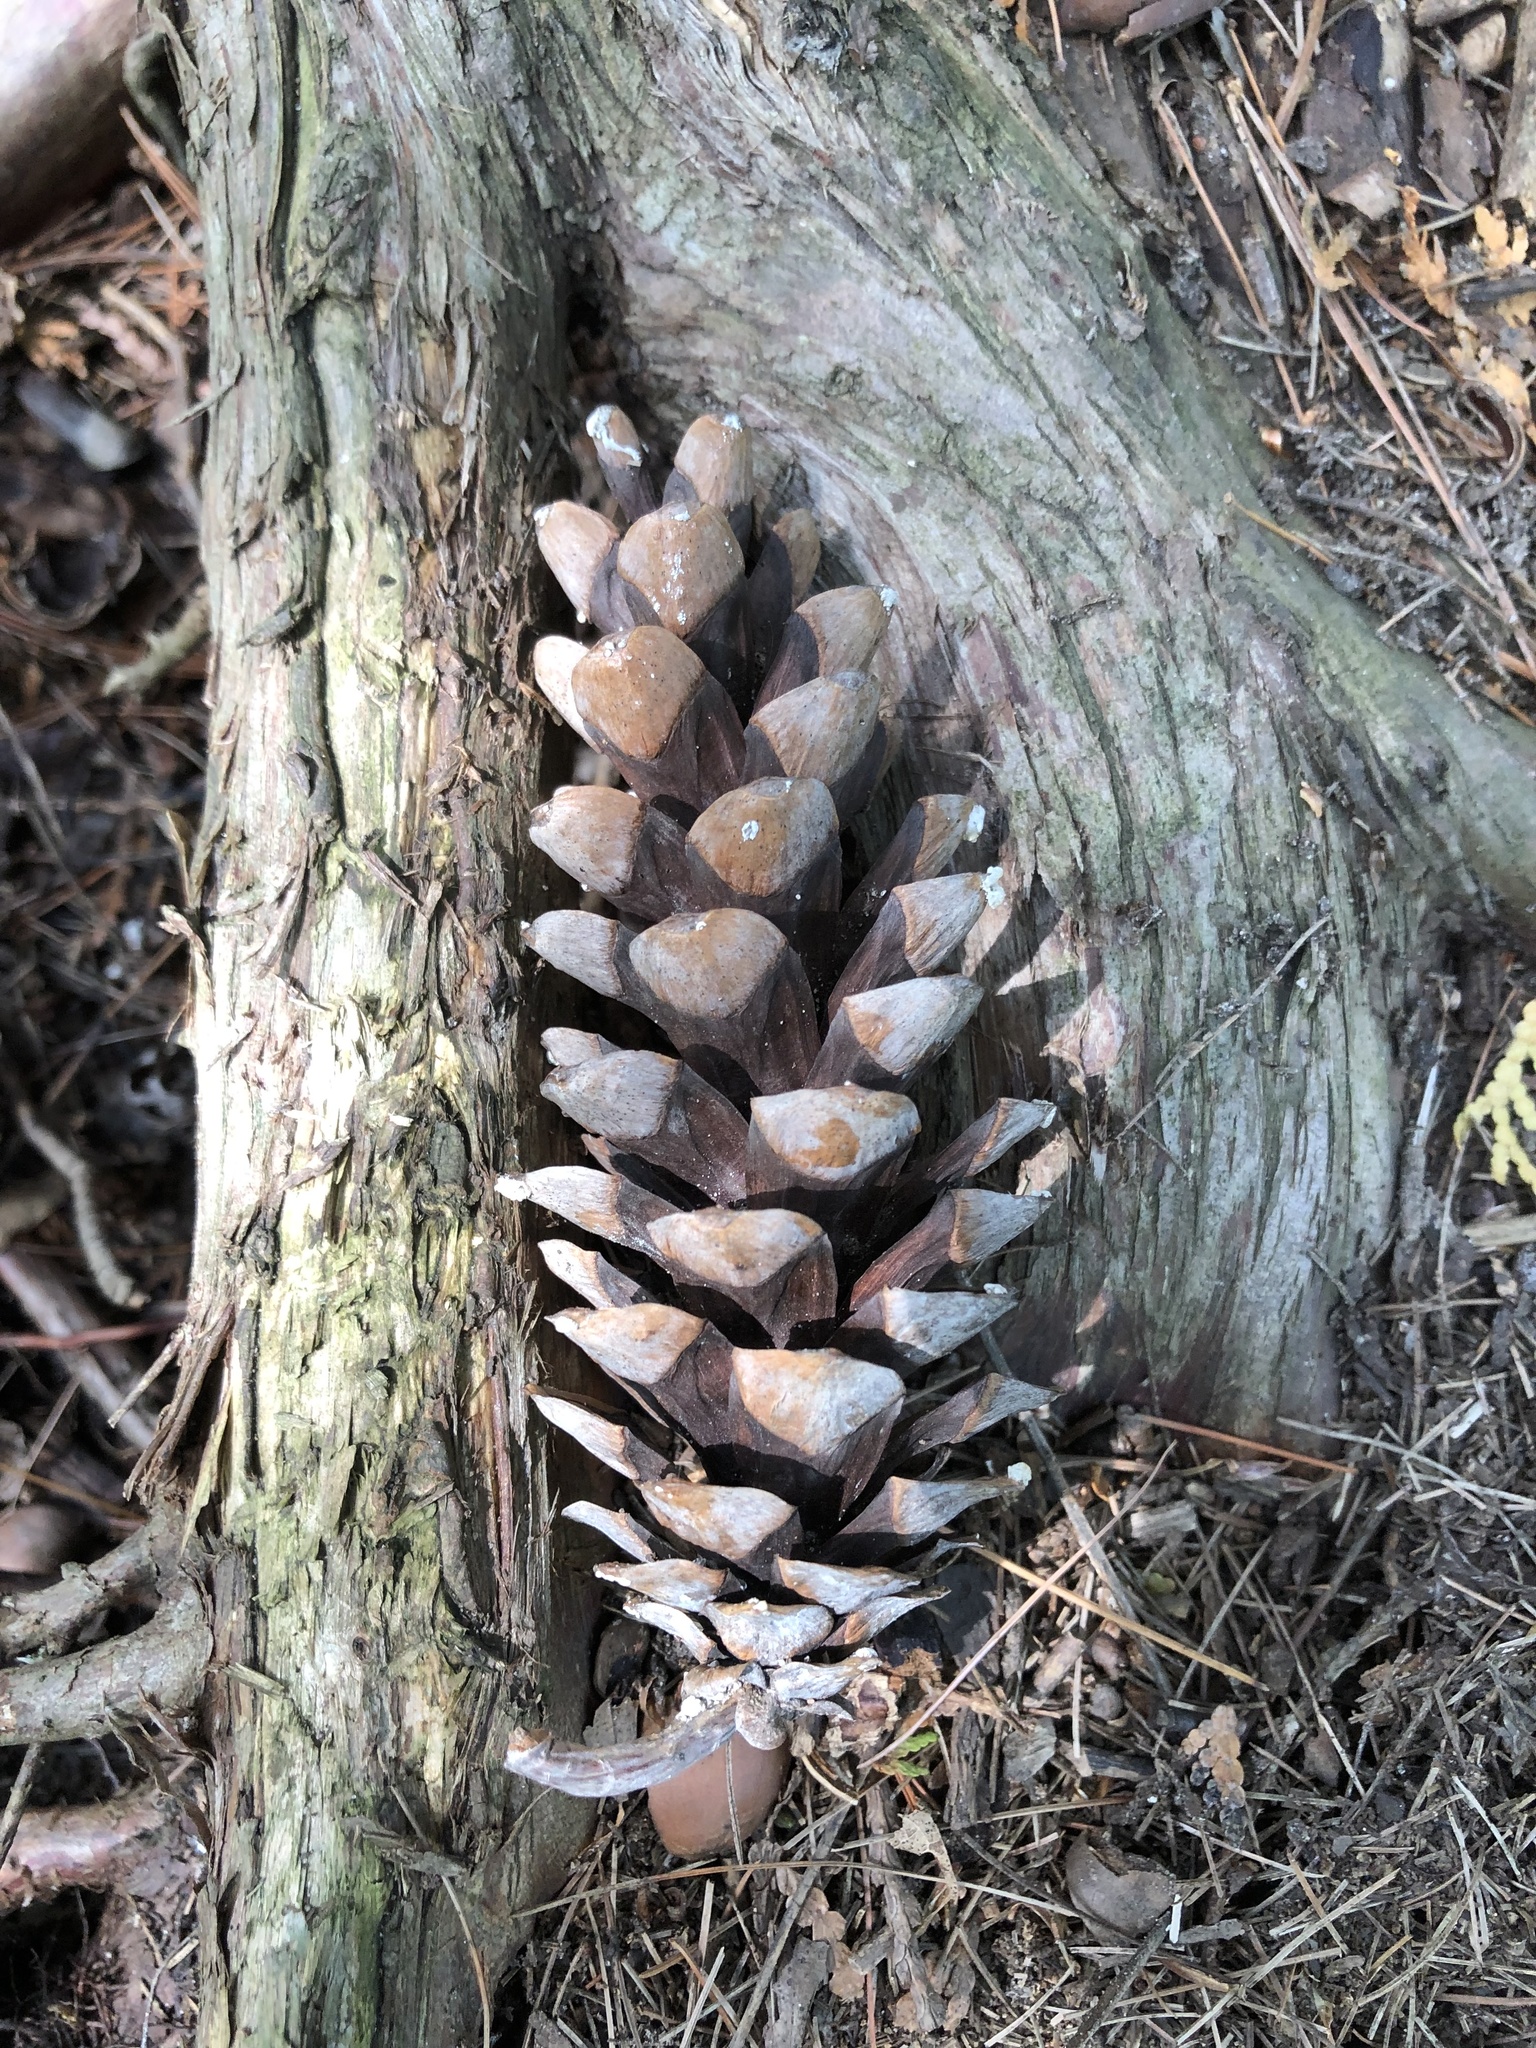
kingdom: Plantae
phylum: Tracheophyta
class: Pinopsida
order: Pinales
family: Pinaceae
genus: Pinus
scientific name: Pinus strobus
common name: Weymouth pine
